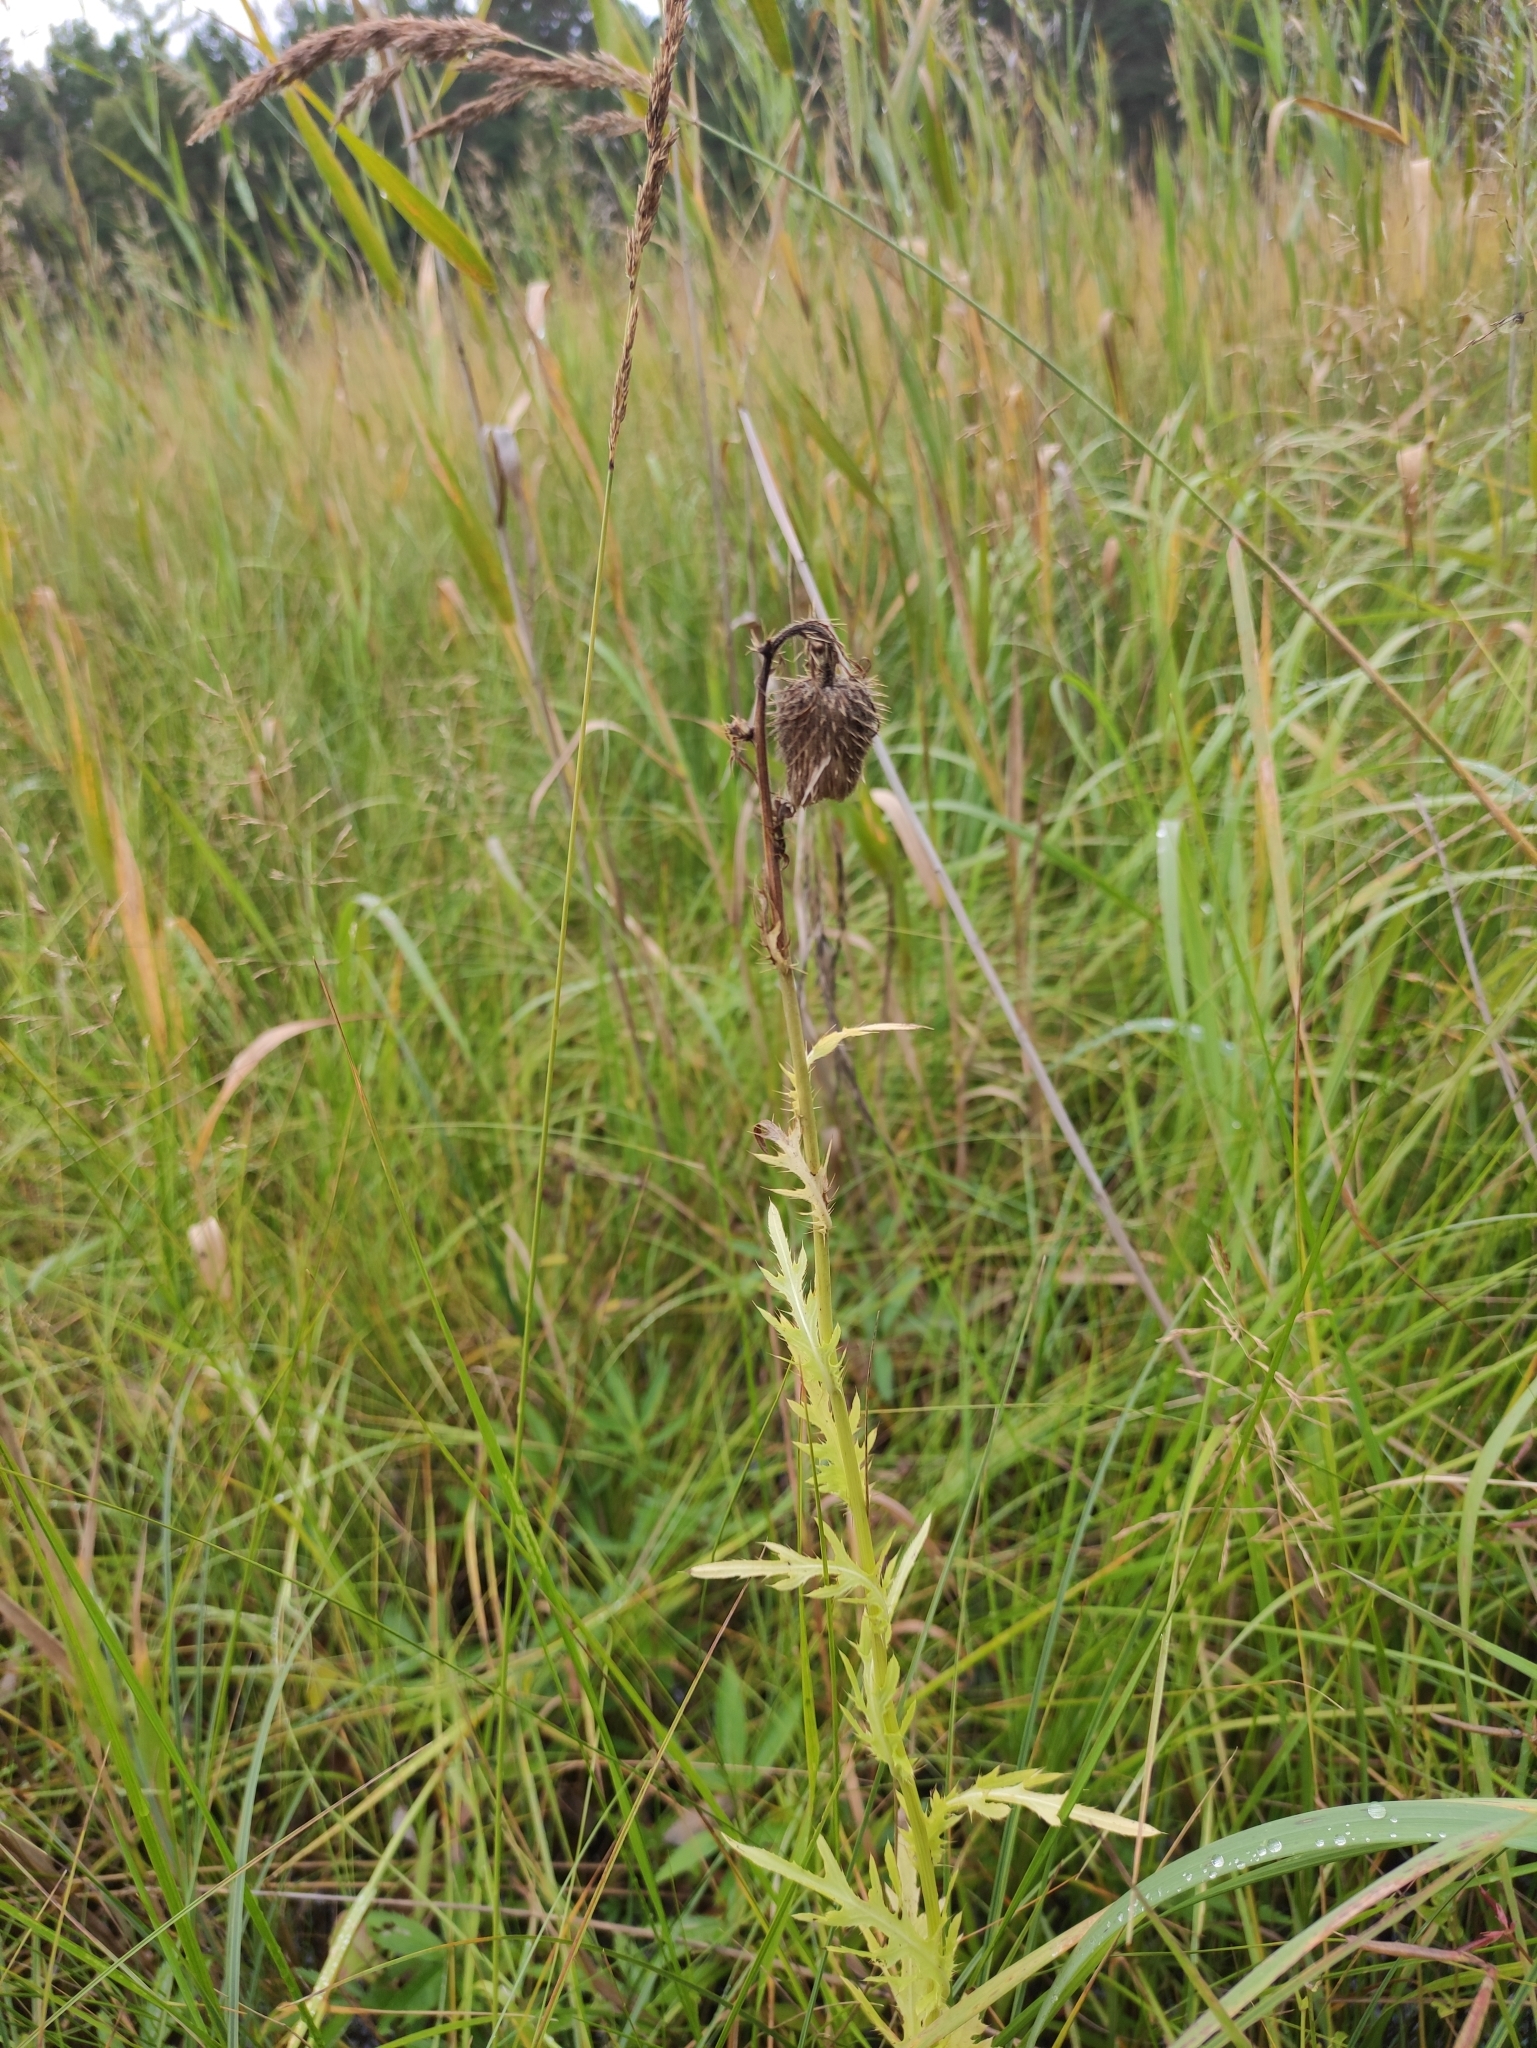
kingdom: Plantae
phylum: Tracheophyta
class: Magnoliopsida
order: Asterales
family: Asteraceae
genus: Cirsium
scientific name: Cirsium pendulum
